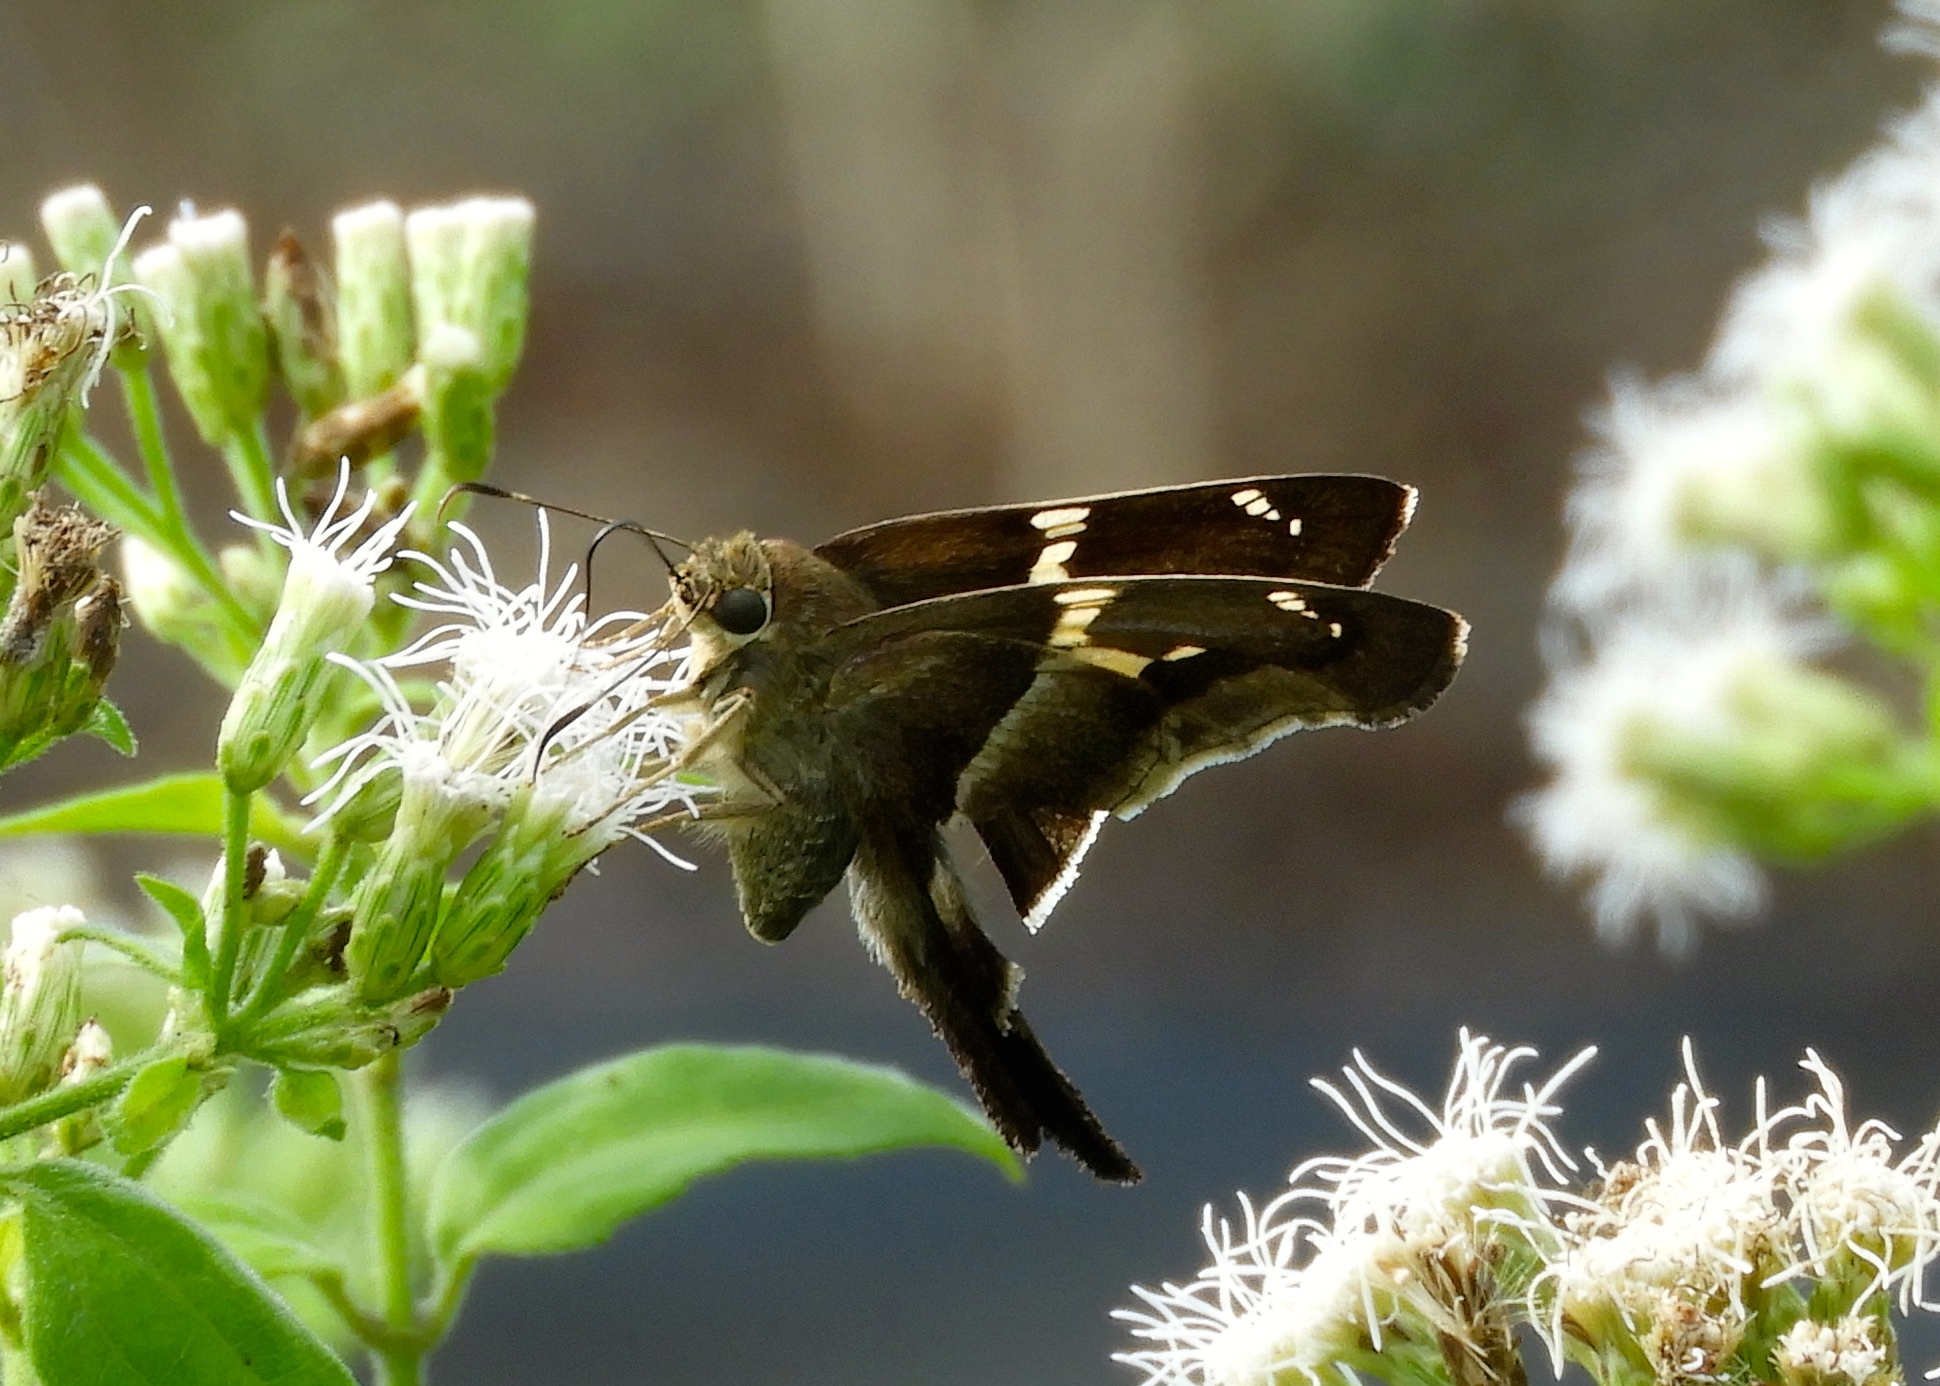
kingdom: Animalia
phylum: Arthropoda
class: Insecta
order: Lepidoptera
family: Hesperiidae
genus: Aguna
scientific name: Aguna metophis
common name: Tailed aguna
